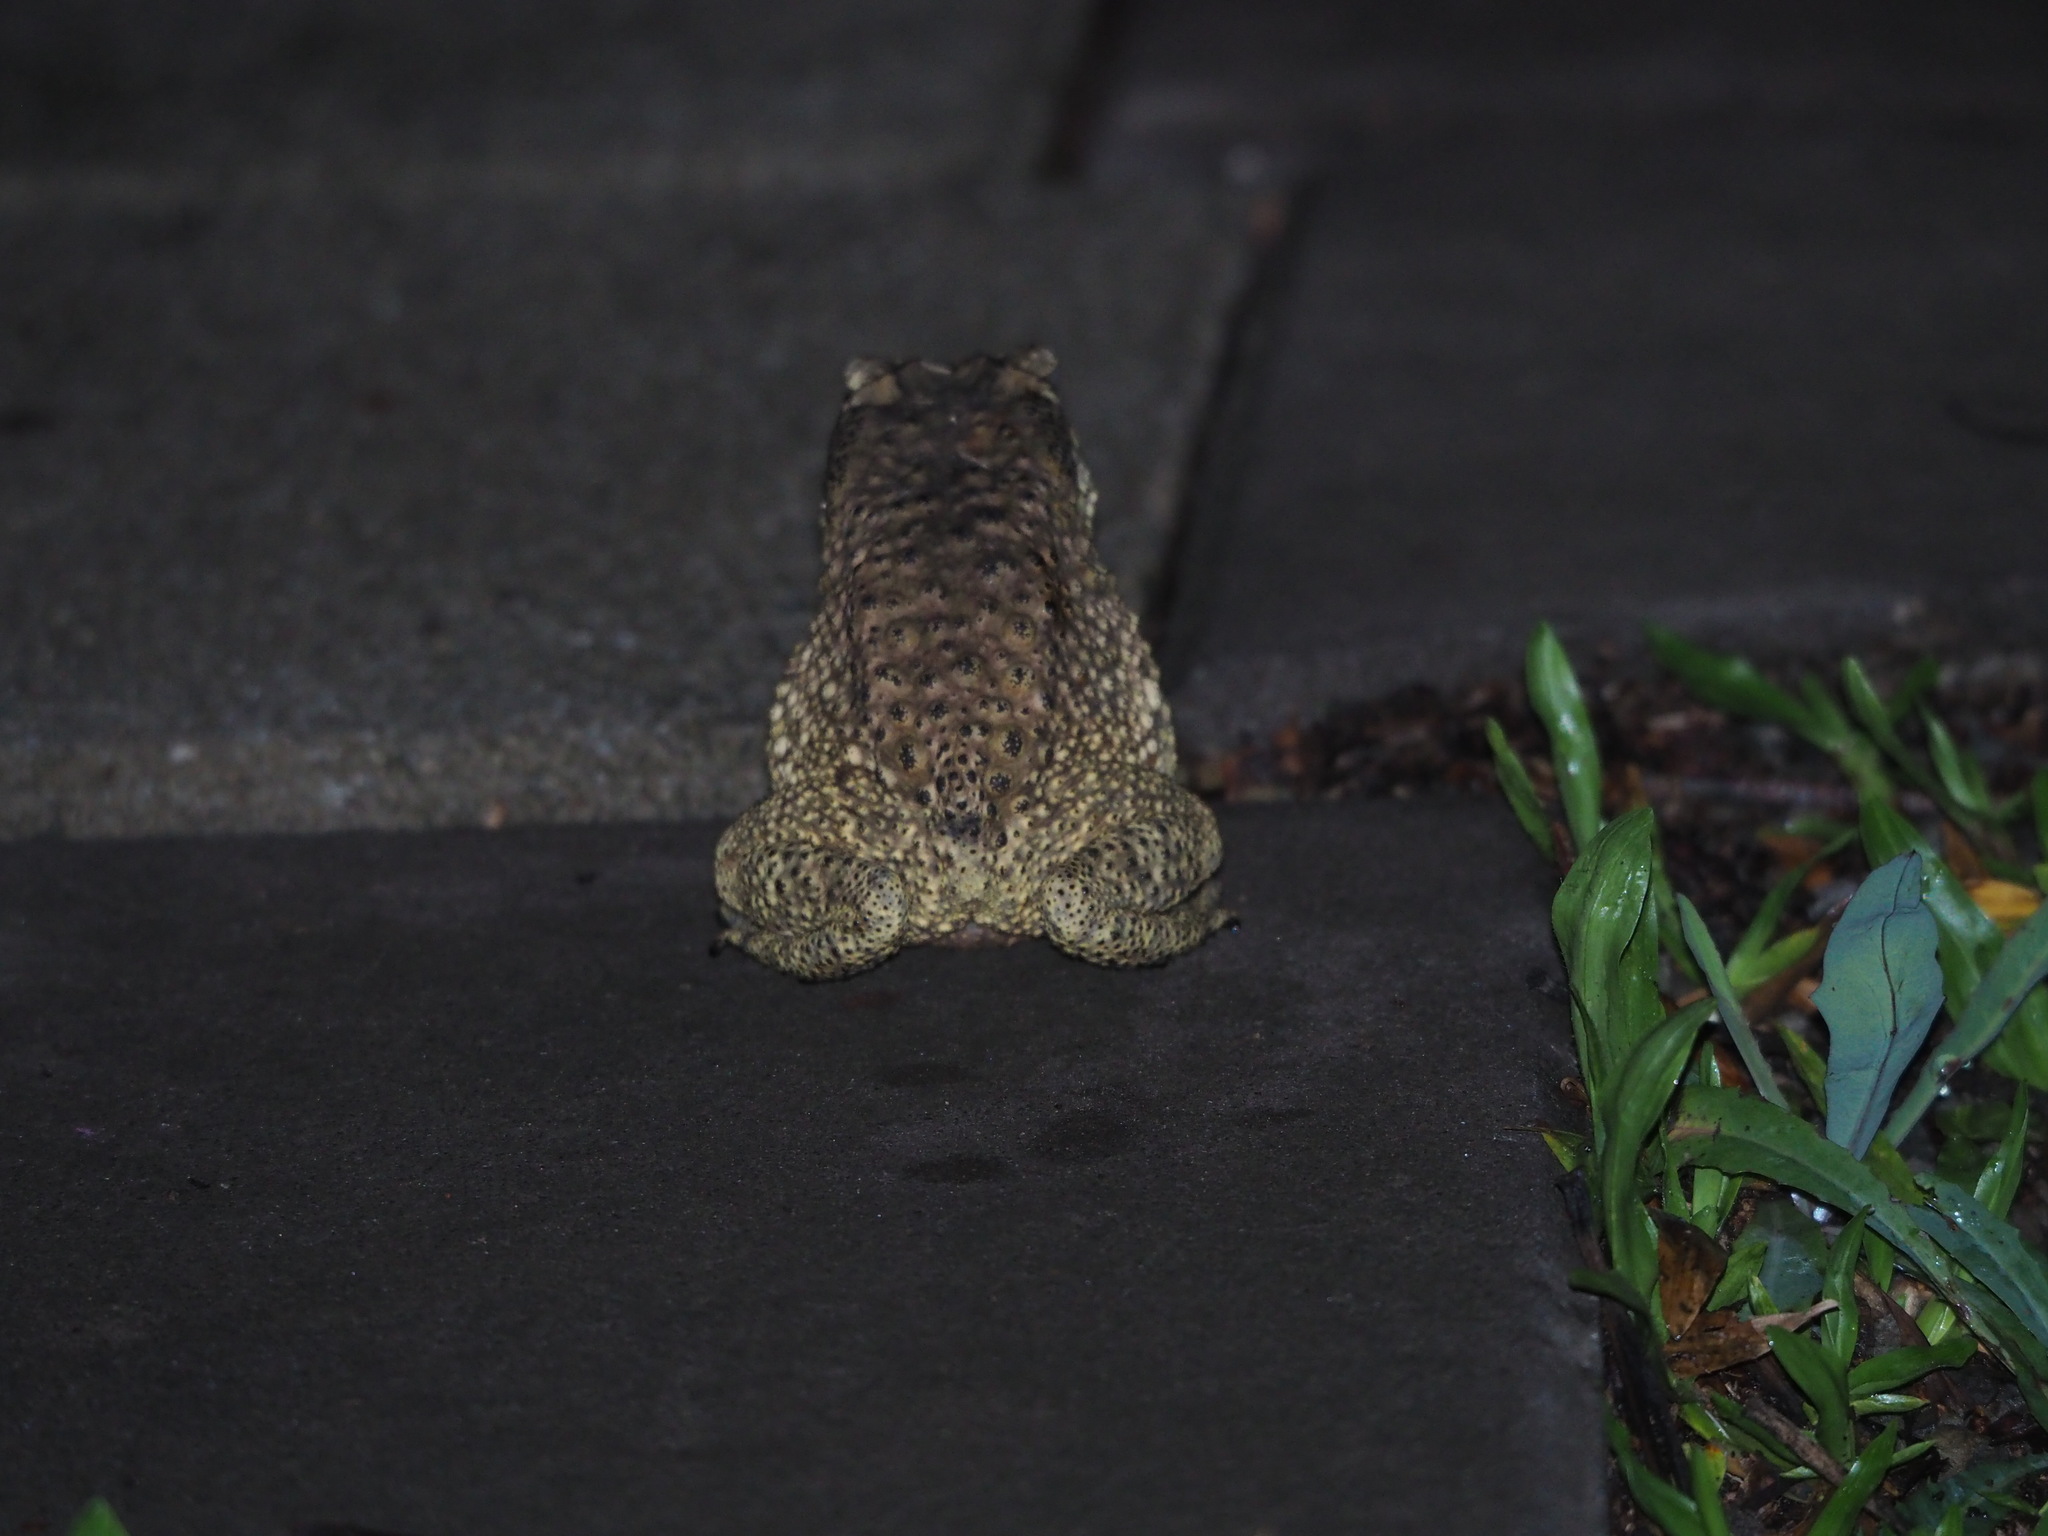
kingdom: Animalia
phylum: Chordata
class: Amphibia
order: Anura
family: Bufonidae
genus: Duttaphrynus
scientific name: Duttaphrynus melanostictus
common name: Common sunda toad
